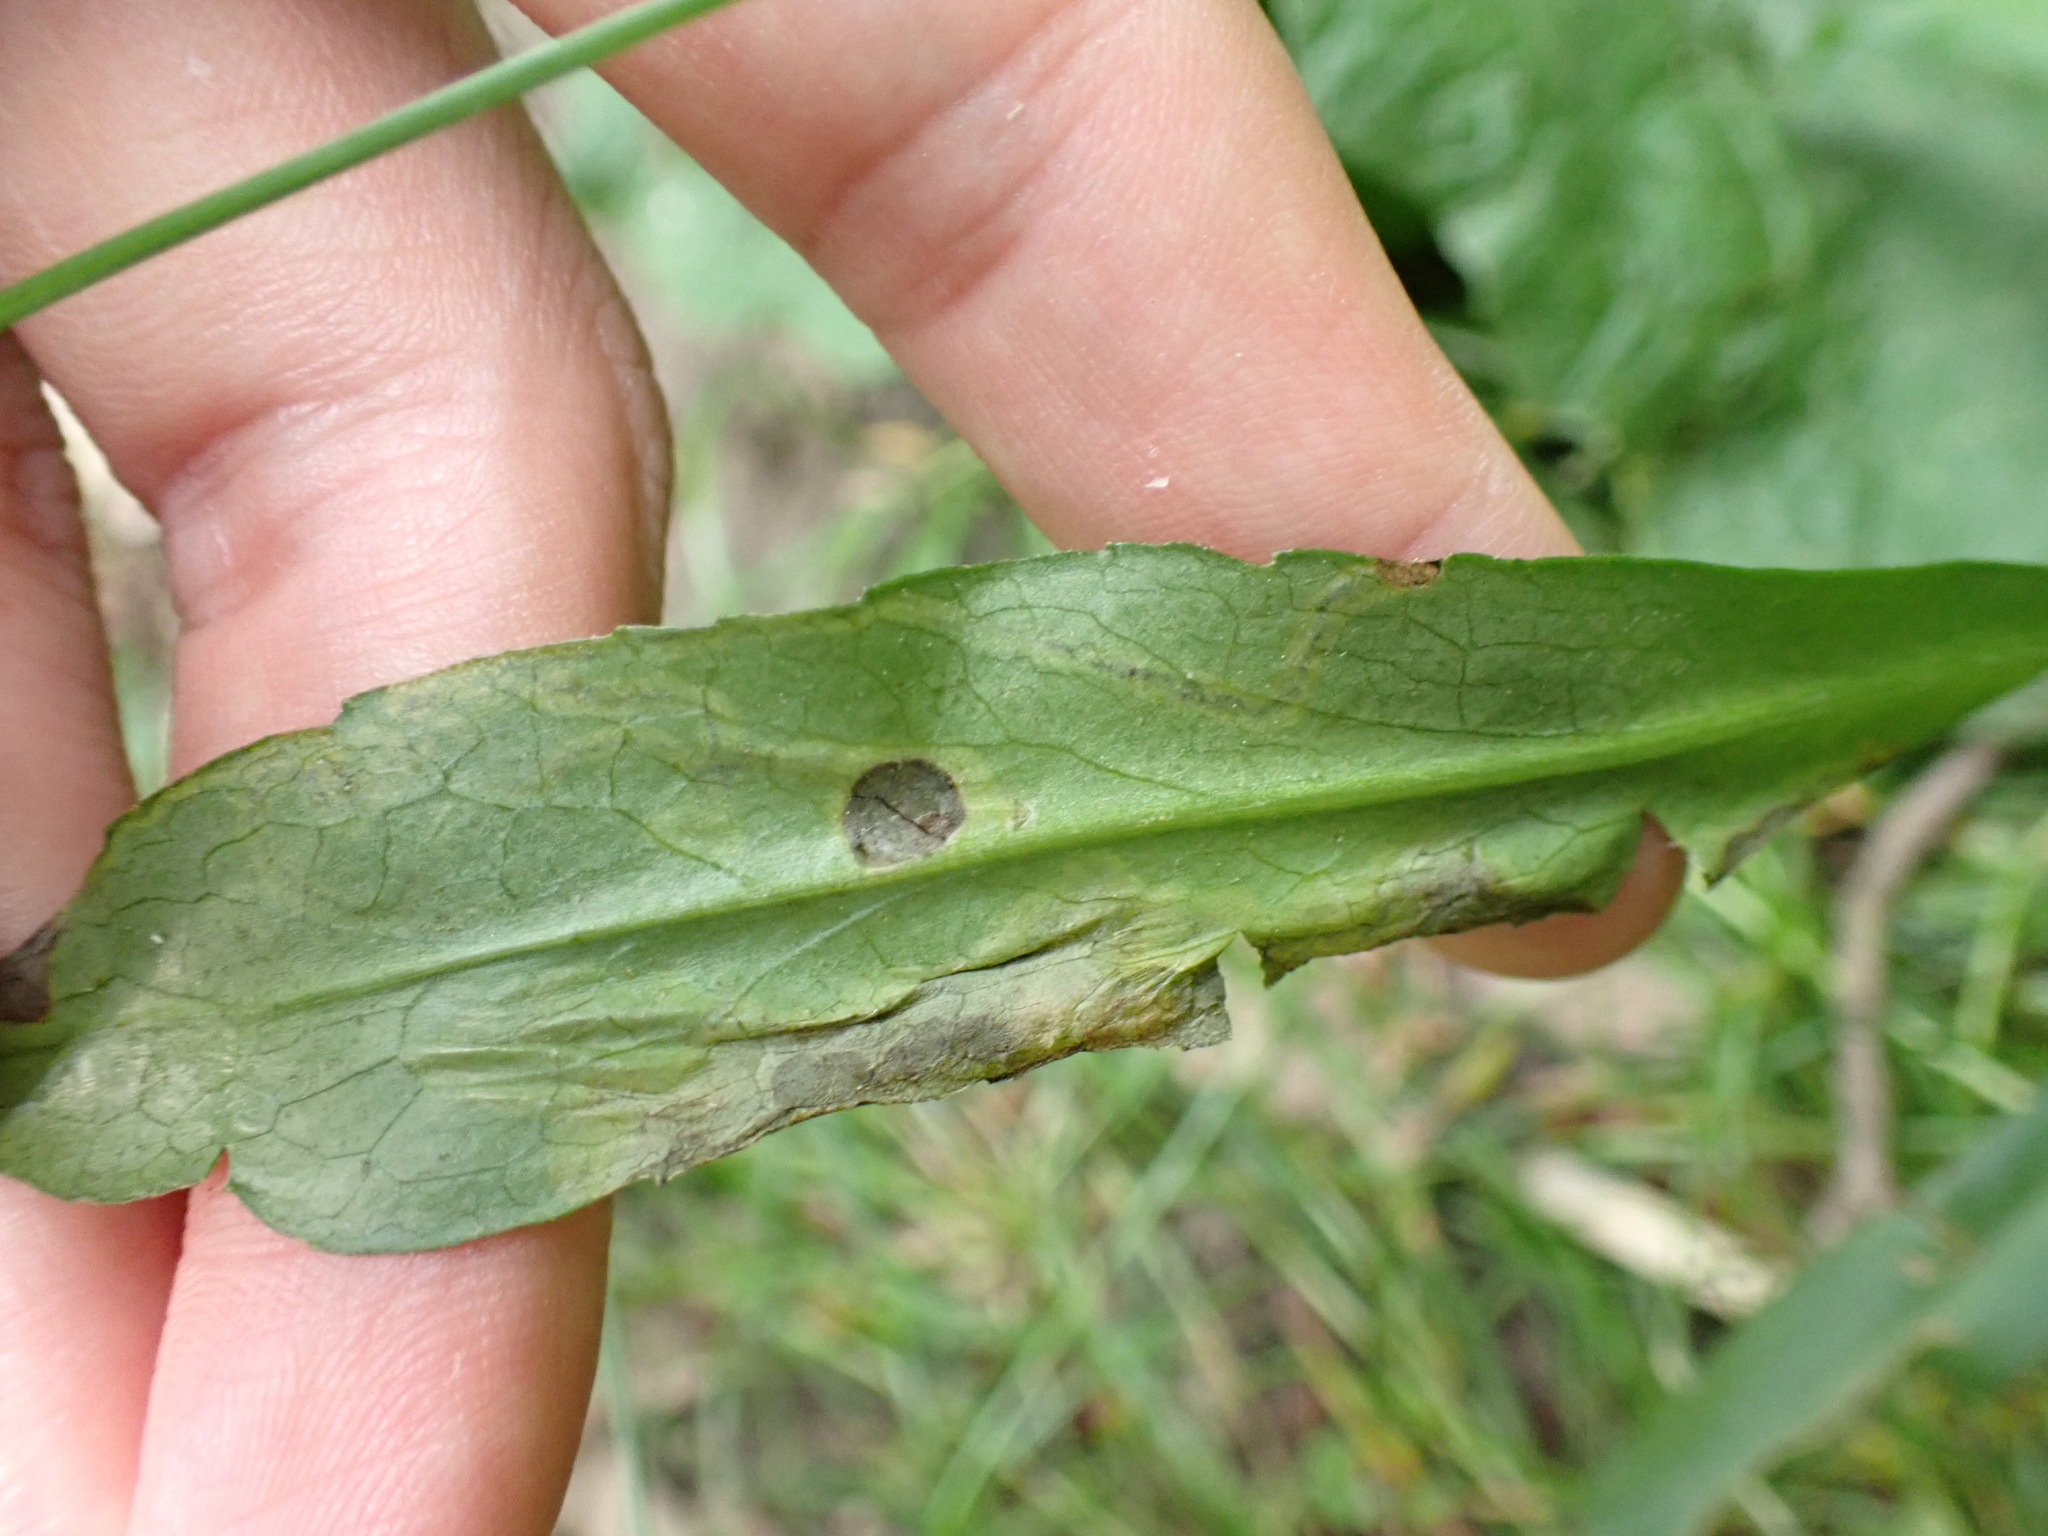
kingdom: Animalia
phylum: Arthropoda
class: Insecta
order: Diptera
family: Agromyzidae
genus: Liriomyza
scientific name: Liriomyza eupatorii
